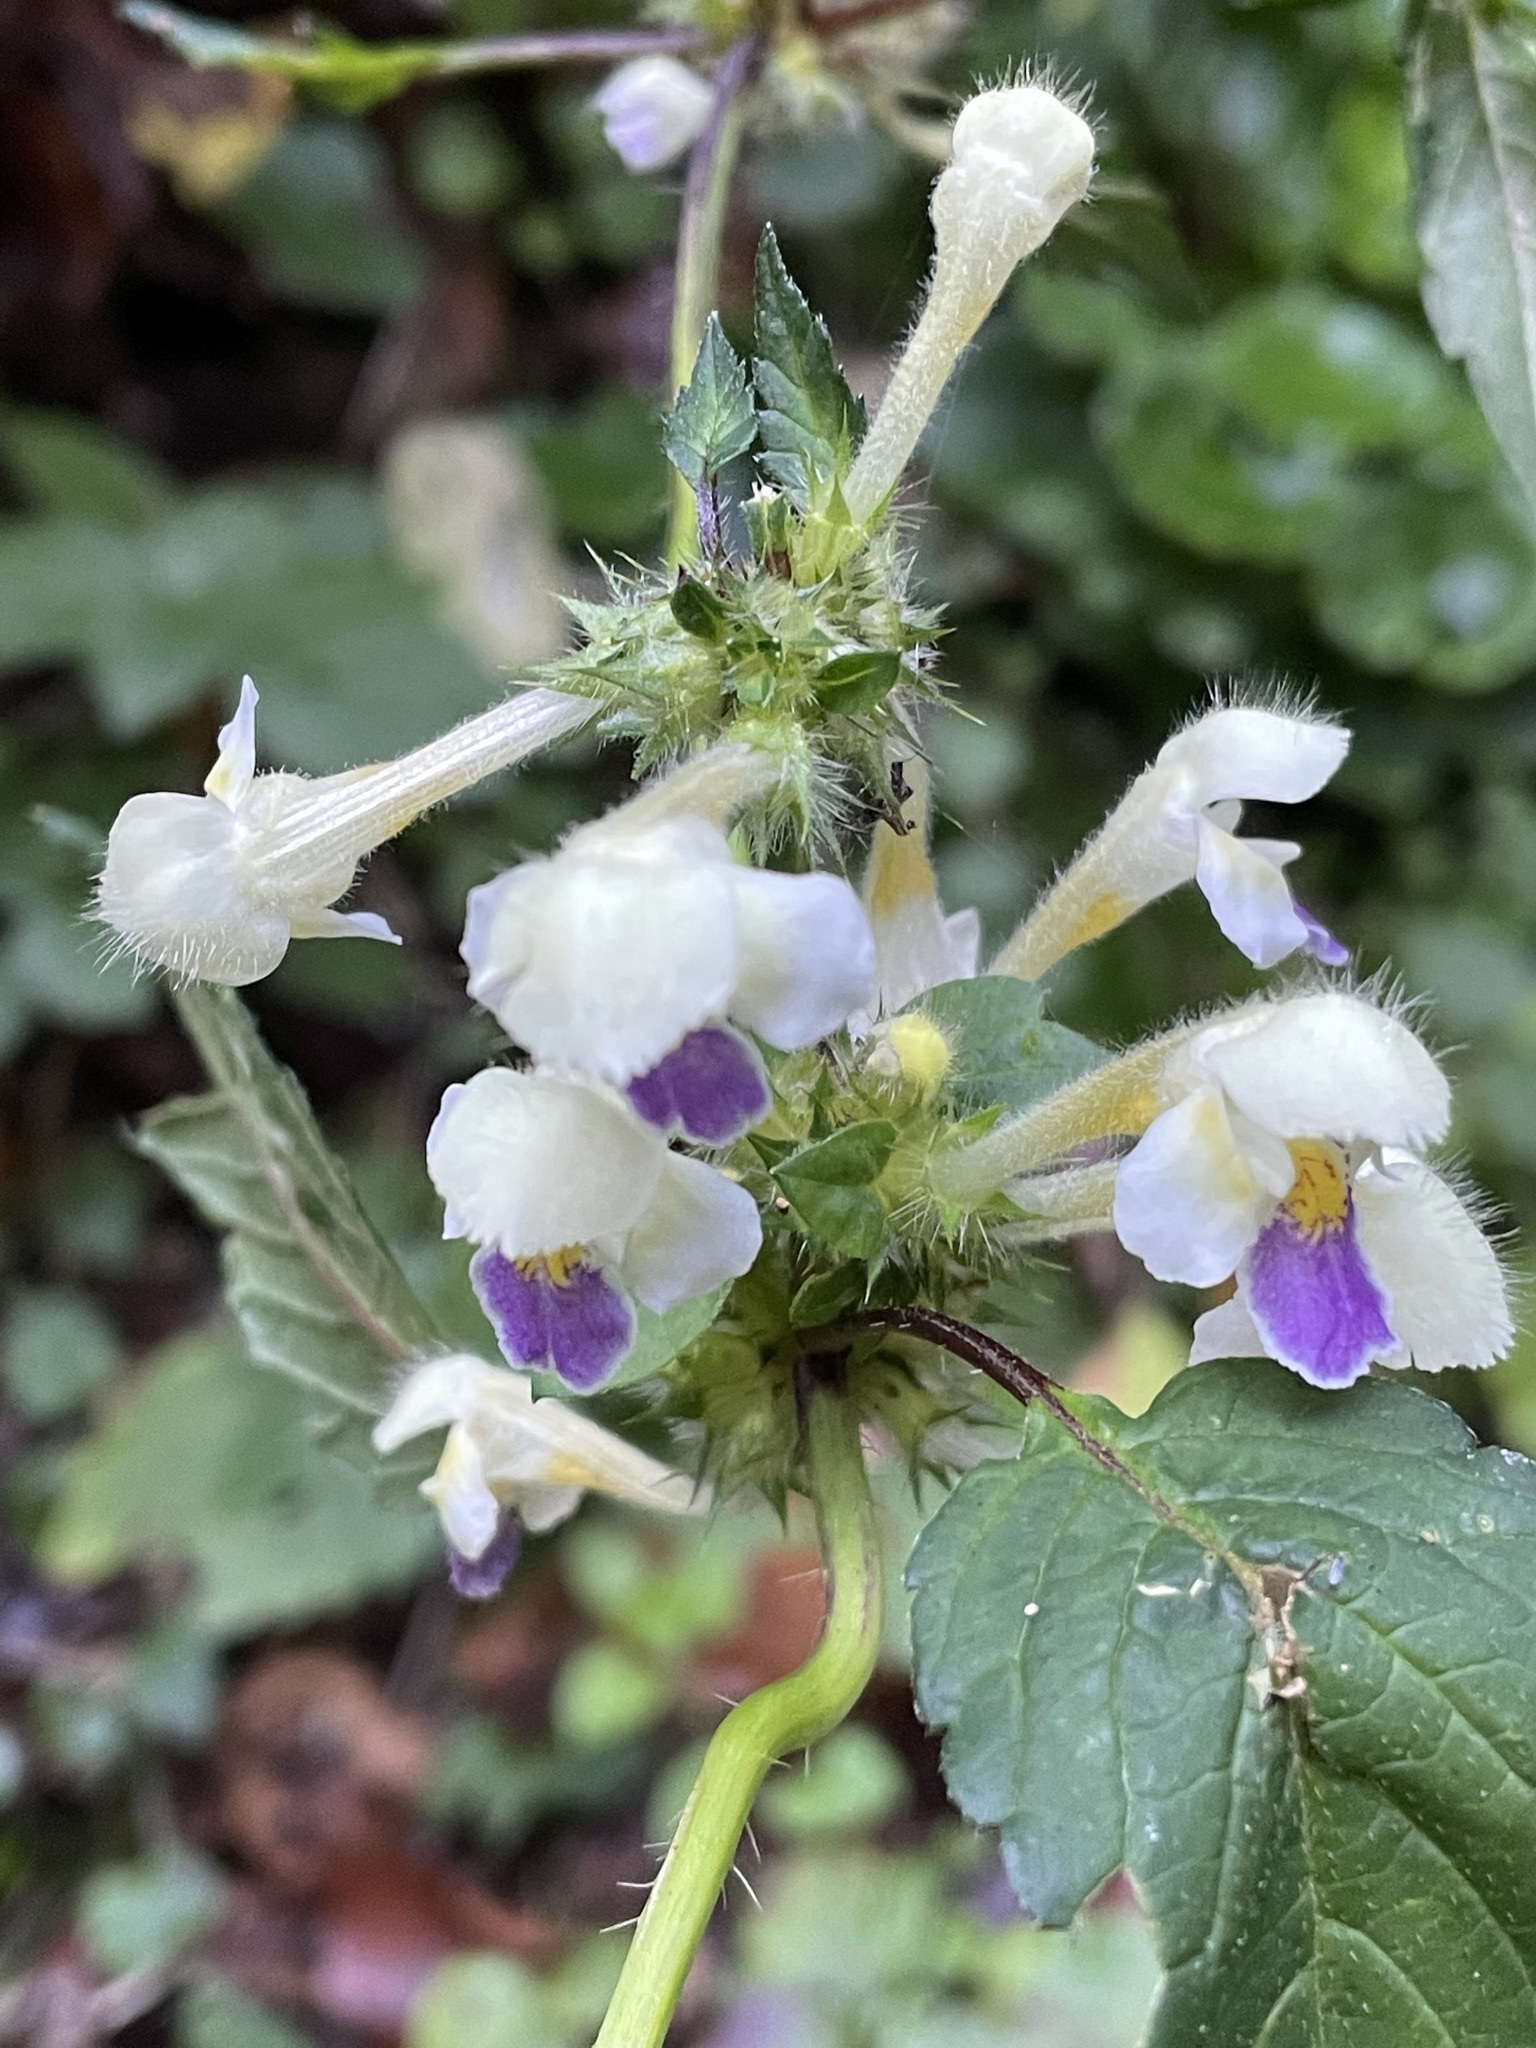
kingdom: Plantae
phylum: Tracheophyta
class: Magnoliopsida
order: Lamiales
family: Lamiaceae
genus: Galeopsis
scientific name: Galeopsis speciosa
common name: Large-flowered hemp-nettle
